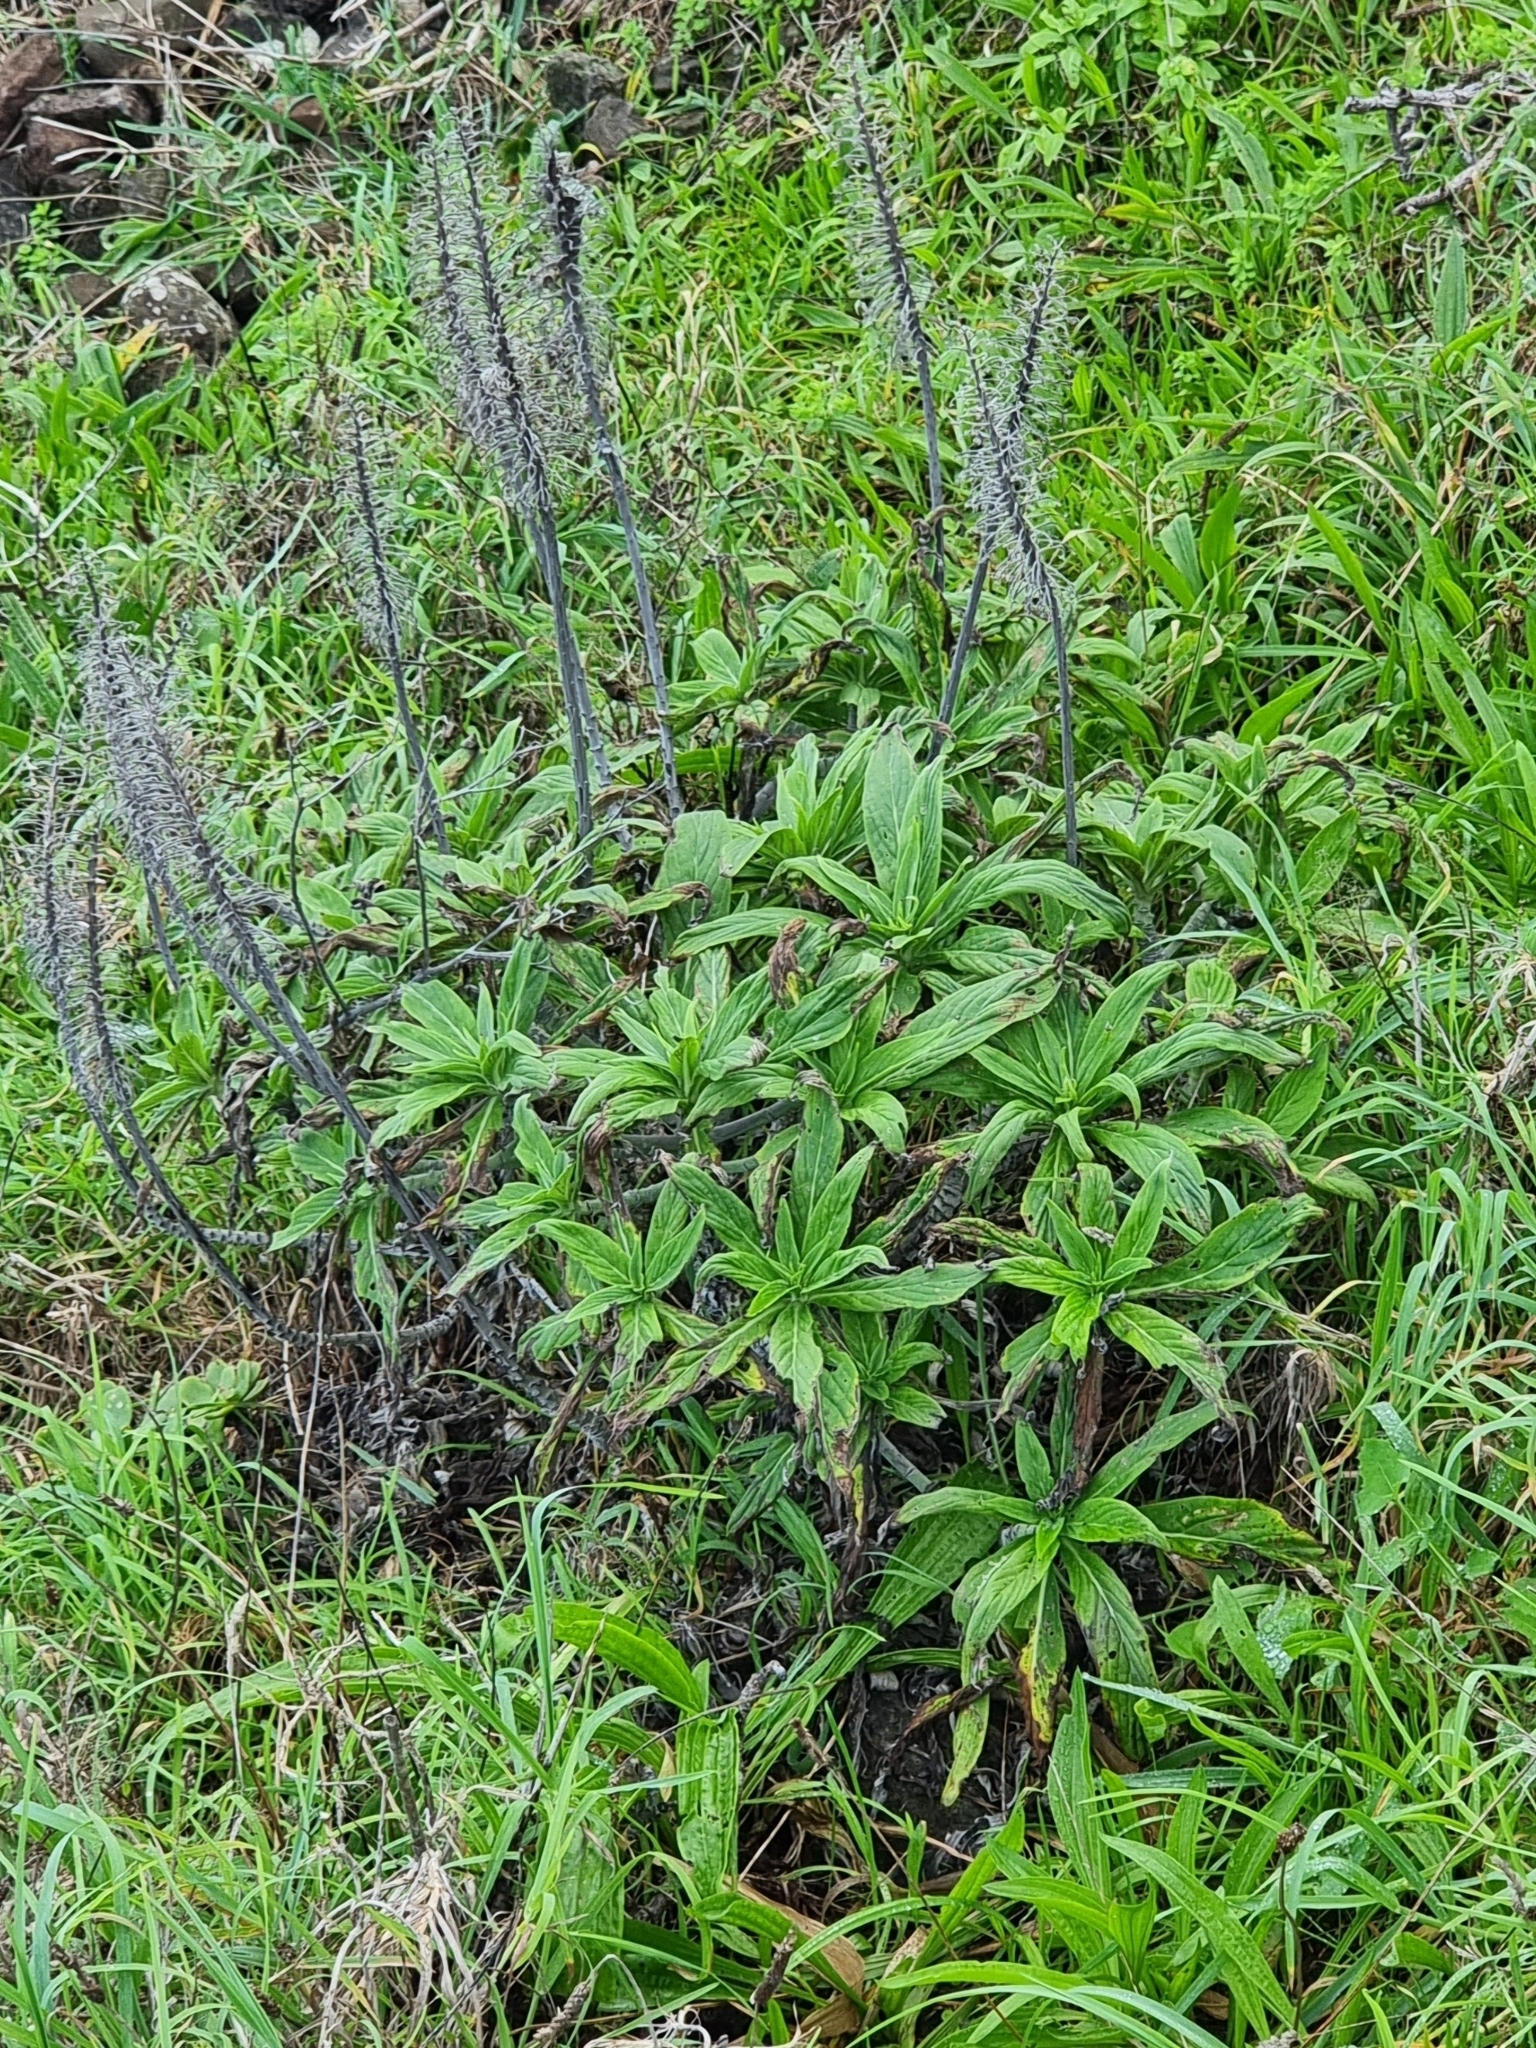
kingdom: Plantae
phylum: Tracheophyta
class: Magnoliopsida
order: Boraginales
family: Boraginaceae
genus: Echium
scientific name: Echium nervosum
